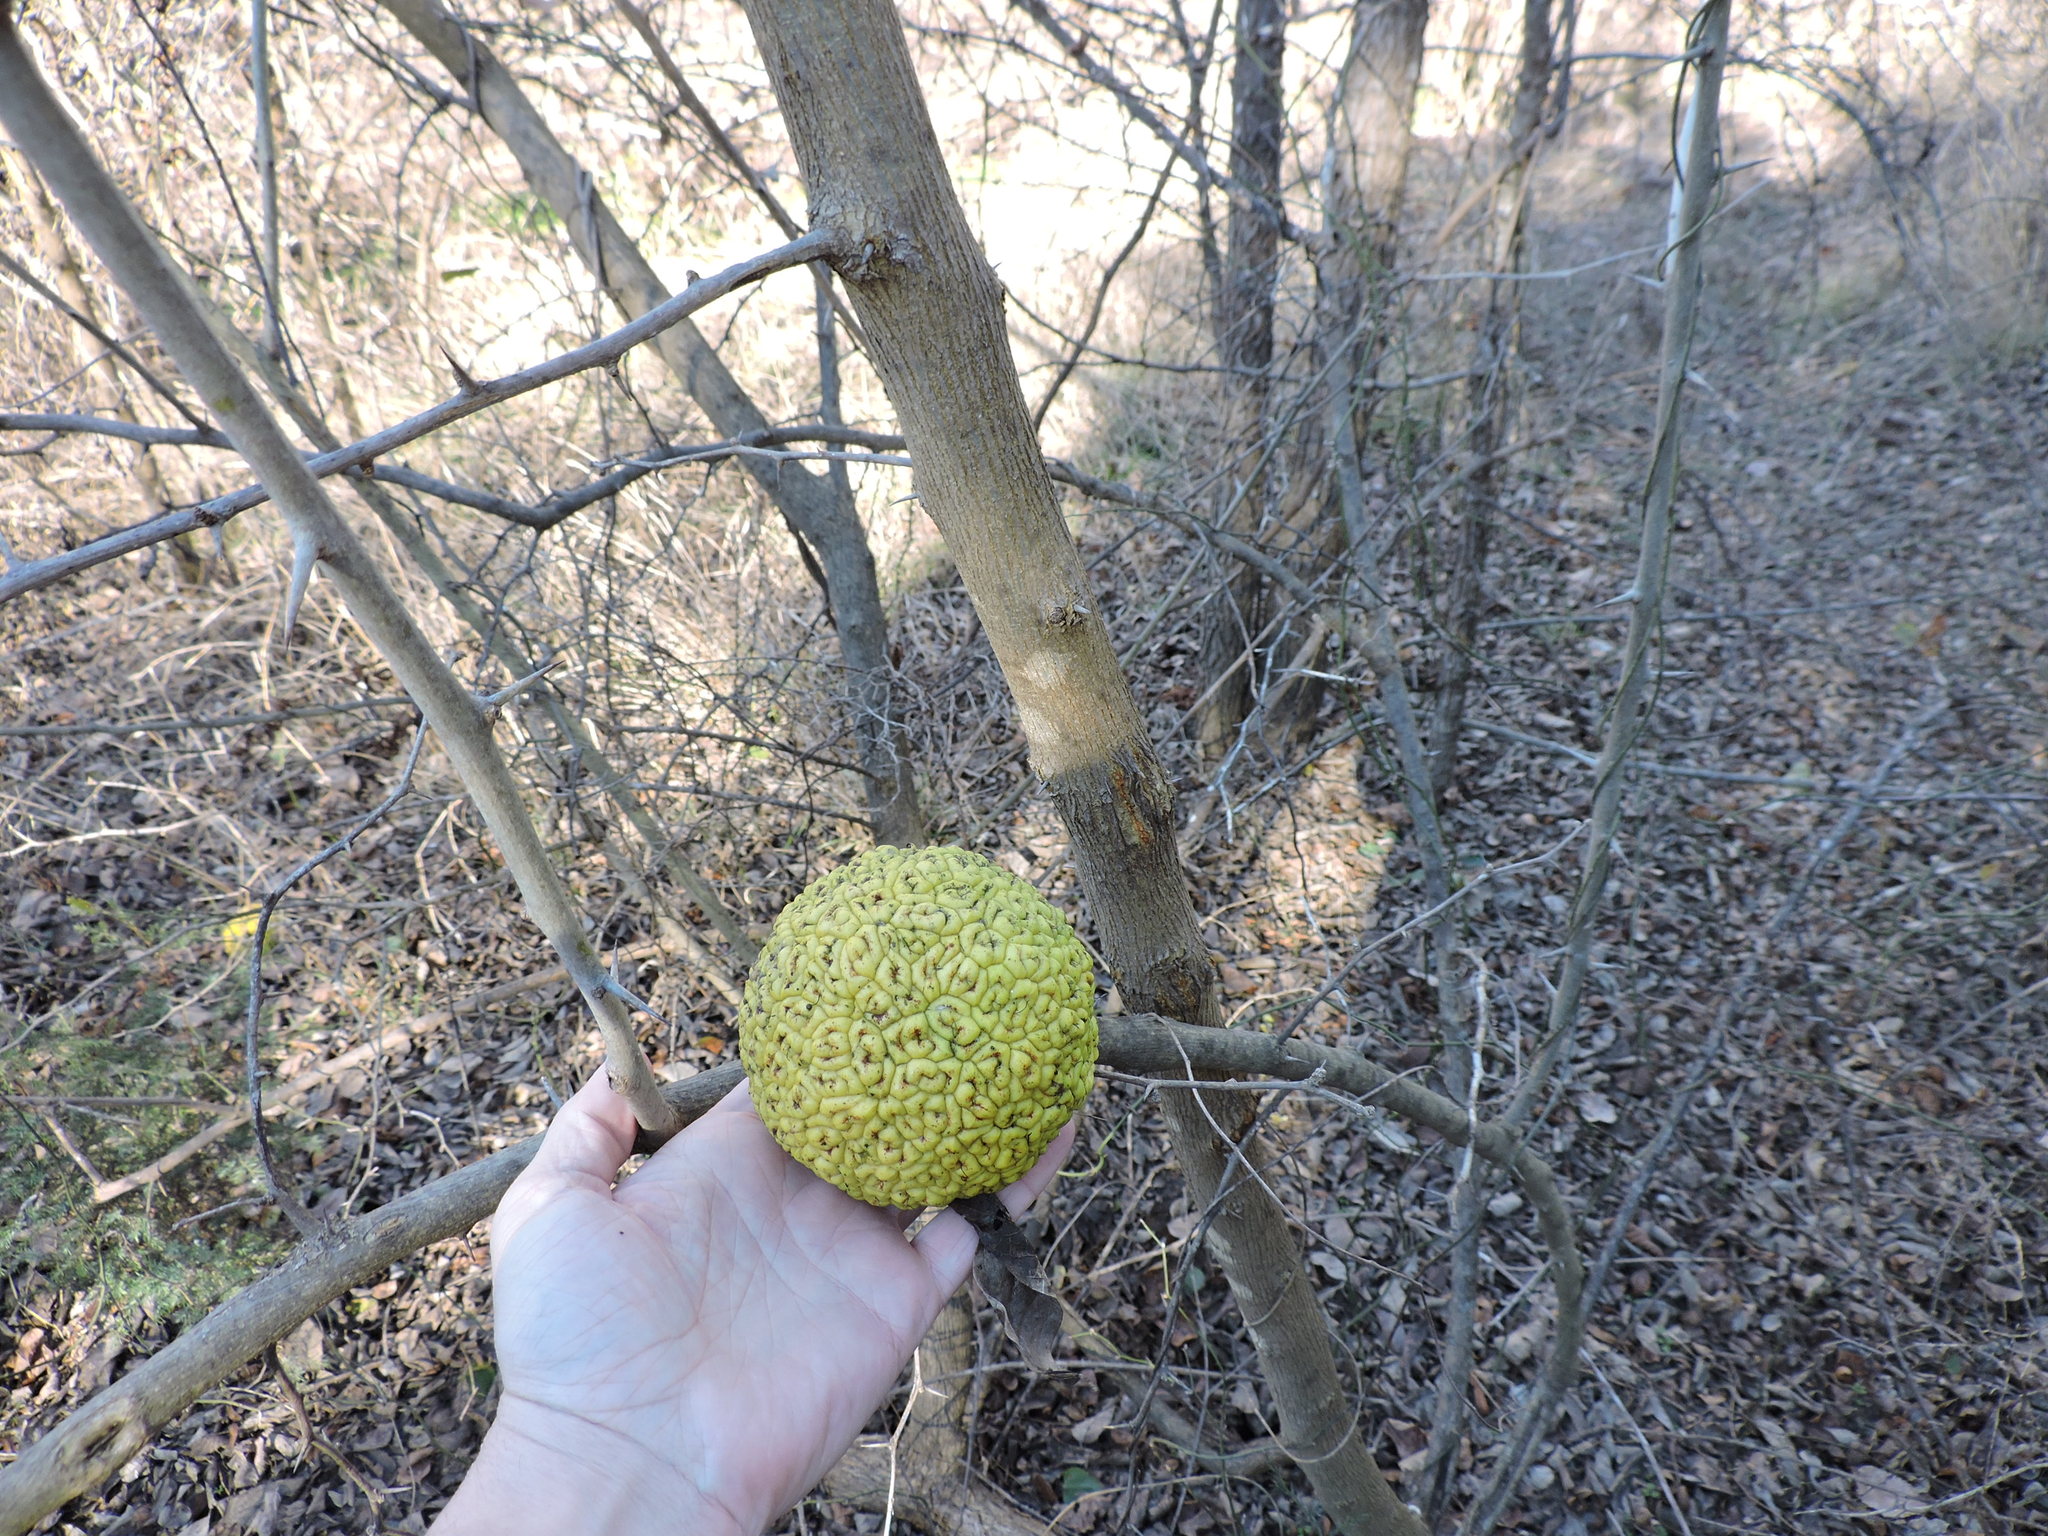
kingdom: Plantae
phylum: Tracheophyta
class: Magnoliopsida
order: Rosales
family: Moraceae
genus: Maclura
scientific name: Maclura pomifera
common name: Osage-orange
